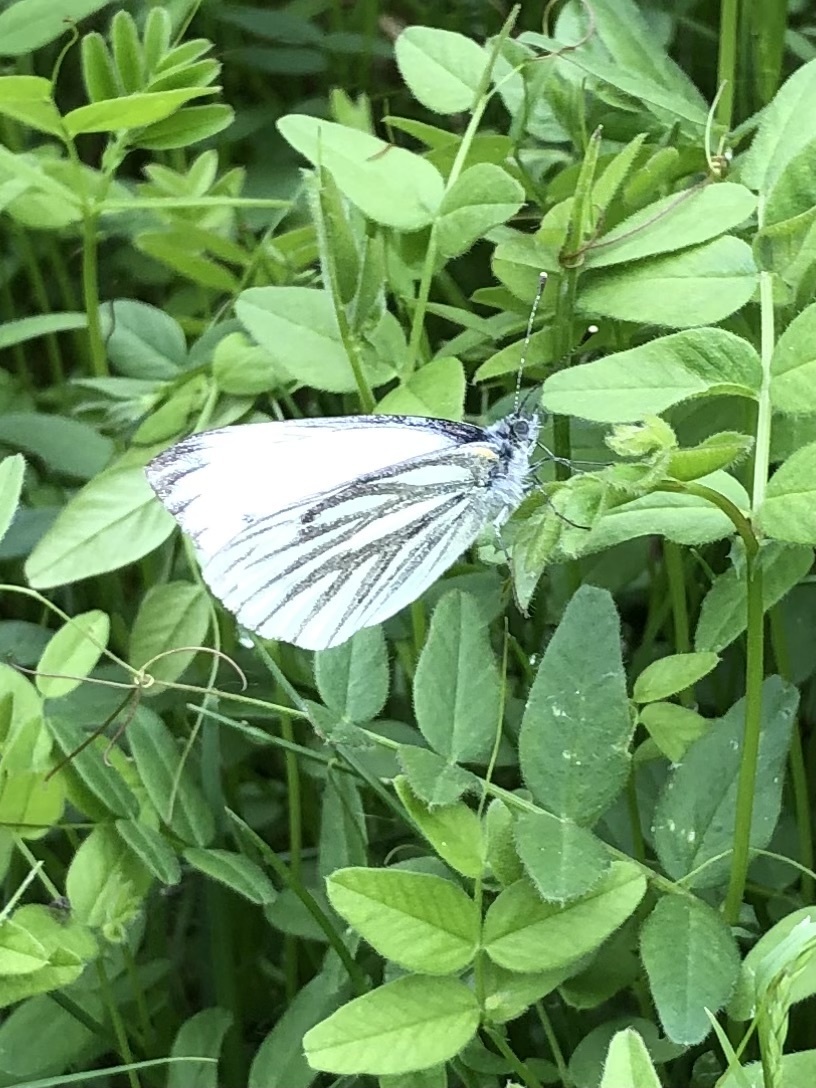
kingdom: Animalia
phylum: Arthropoda
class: Insecta
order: Lepidoptera
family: Pieridae
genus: Pieris
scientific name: Pieris napi
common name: Green-veined white
